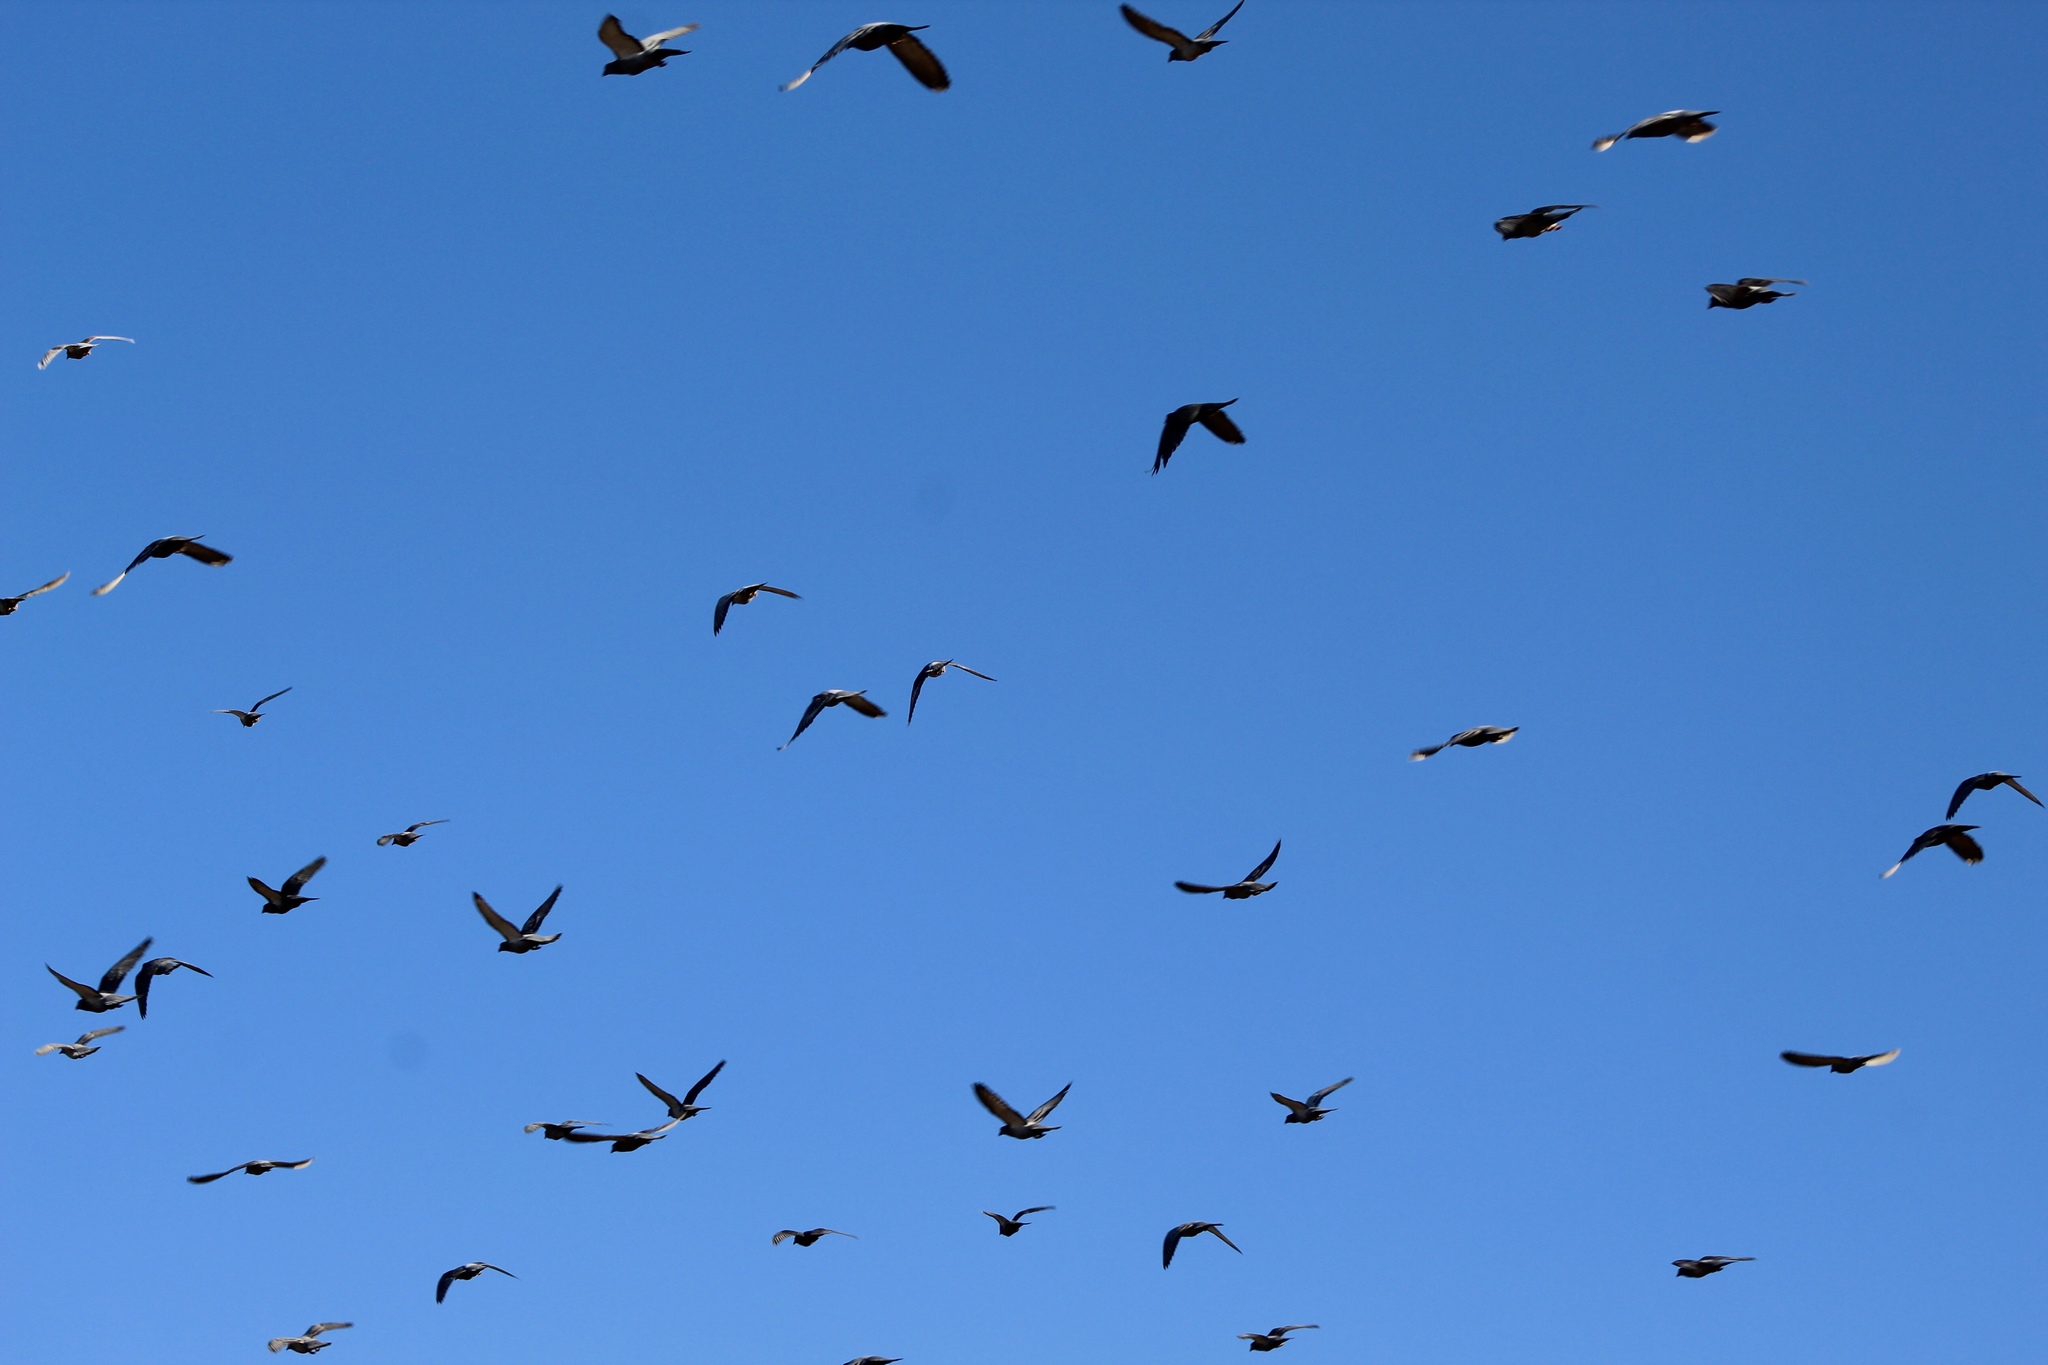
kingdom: Animalia
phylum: Chordata
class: Aves
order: Columbiformes
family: Columbidae
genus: Columba
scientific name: Columba livia
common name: Rock pigeon
